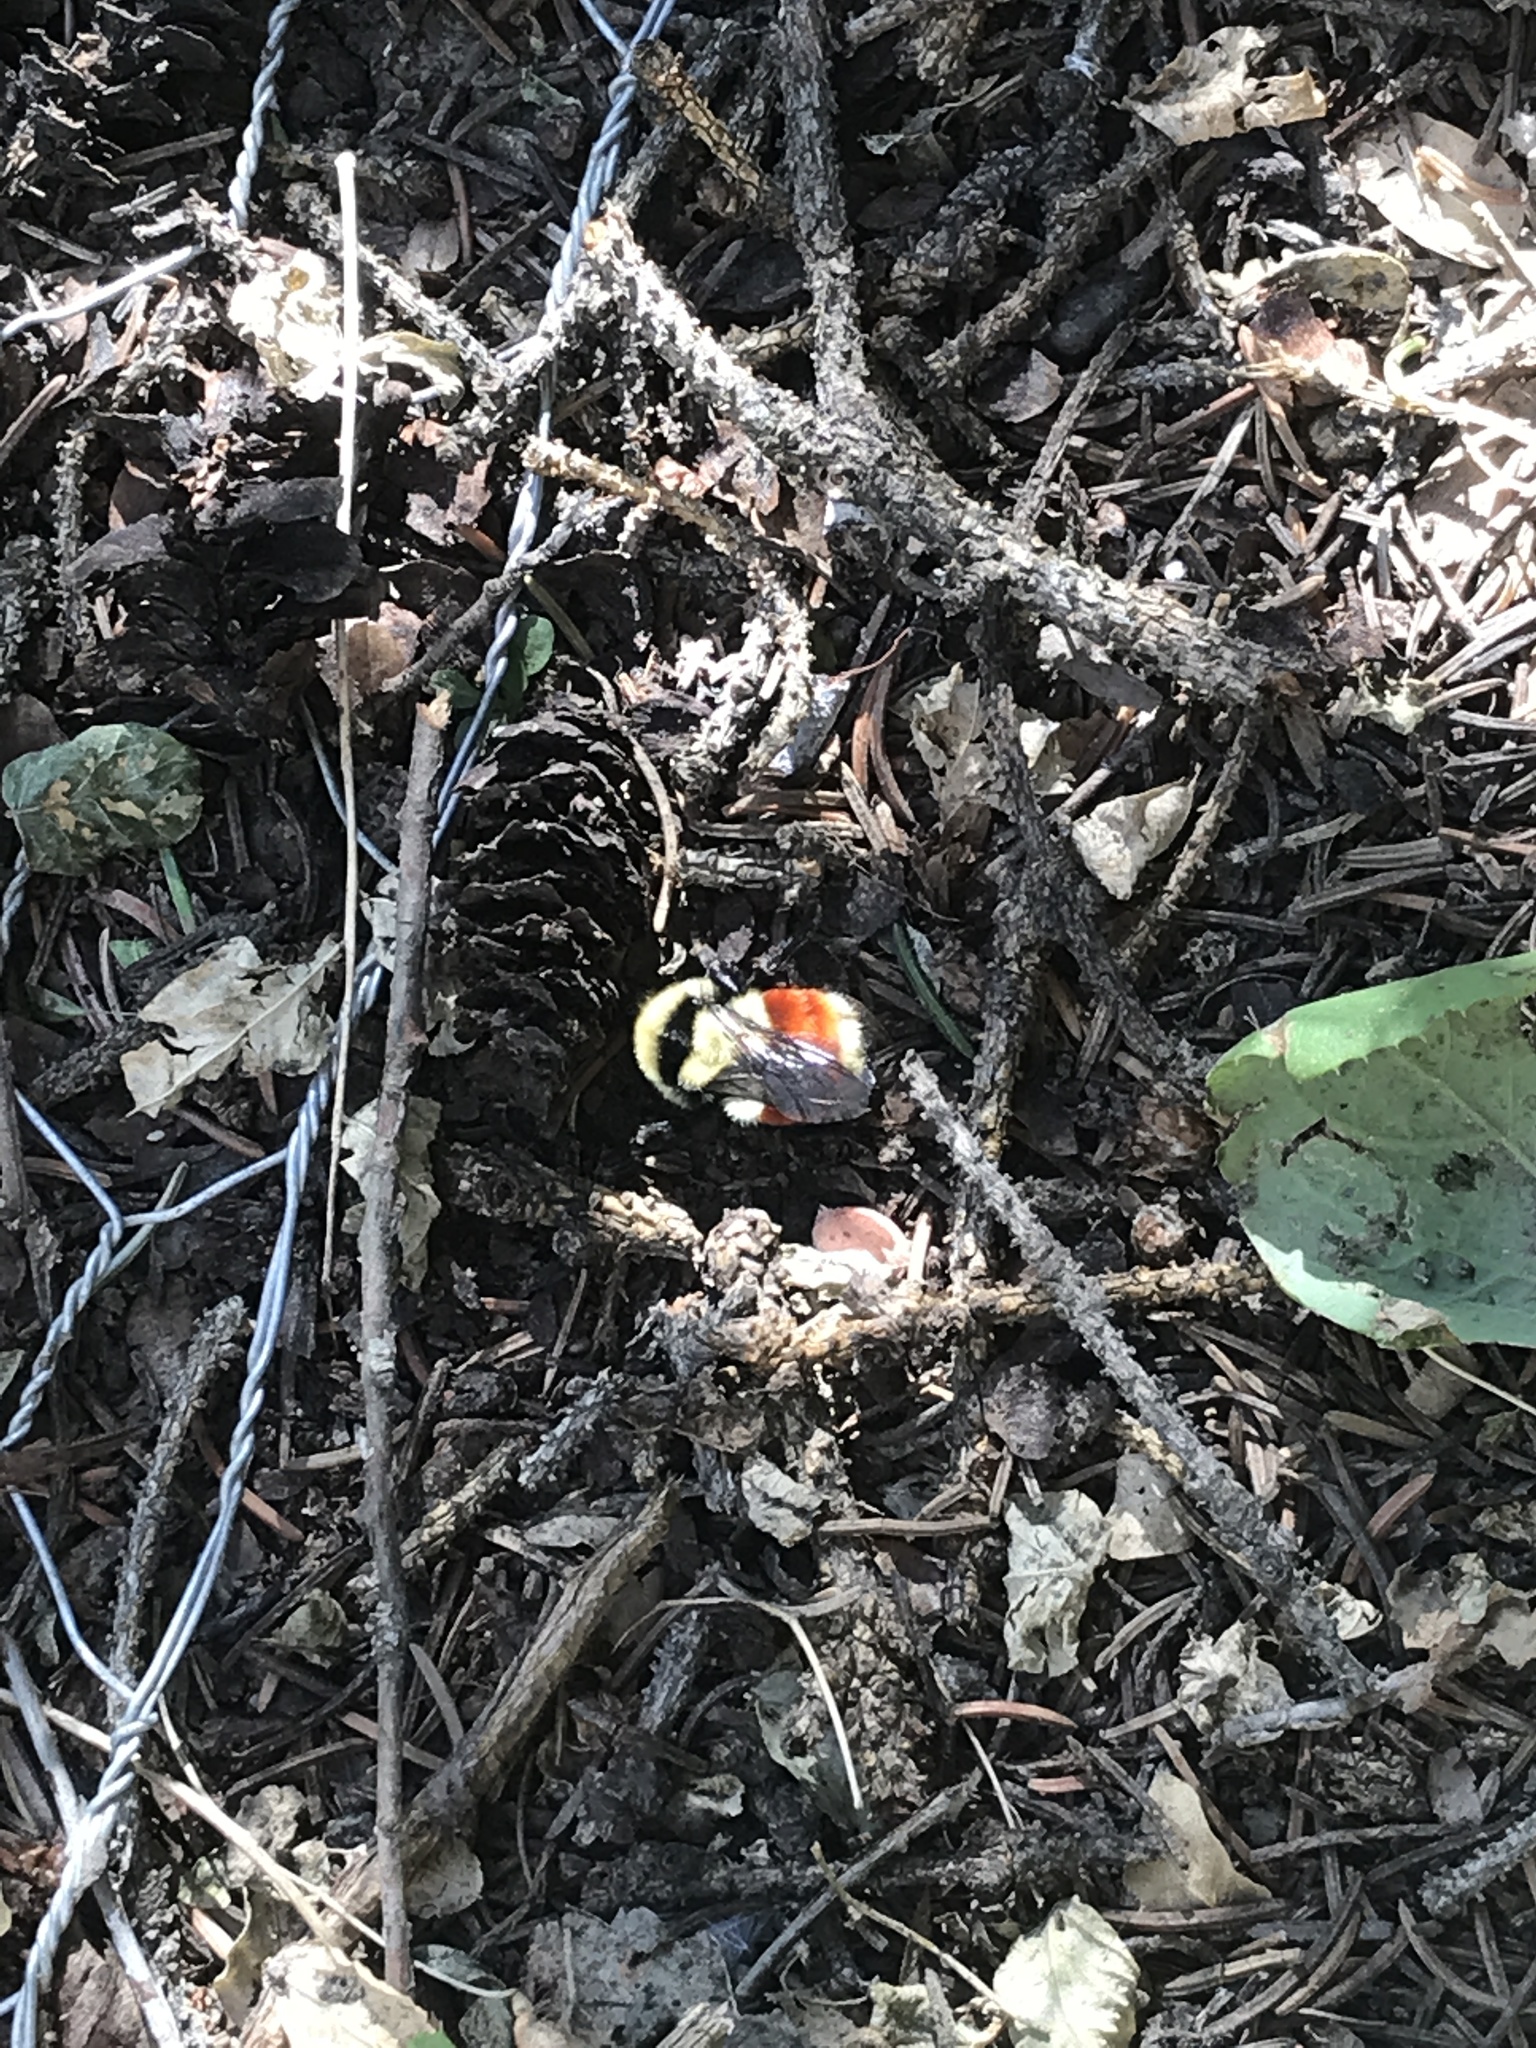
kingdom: Animalia
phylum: Arthropoda
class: Insecta
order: Hymenoptera
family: Apidae
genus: Bombus
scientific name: Bombus huntii
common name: Hunt bumble bee
